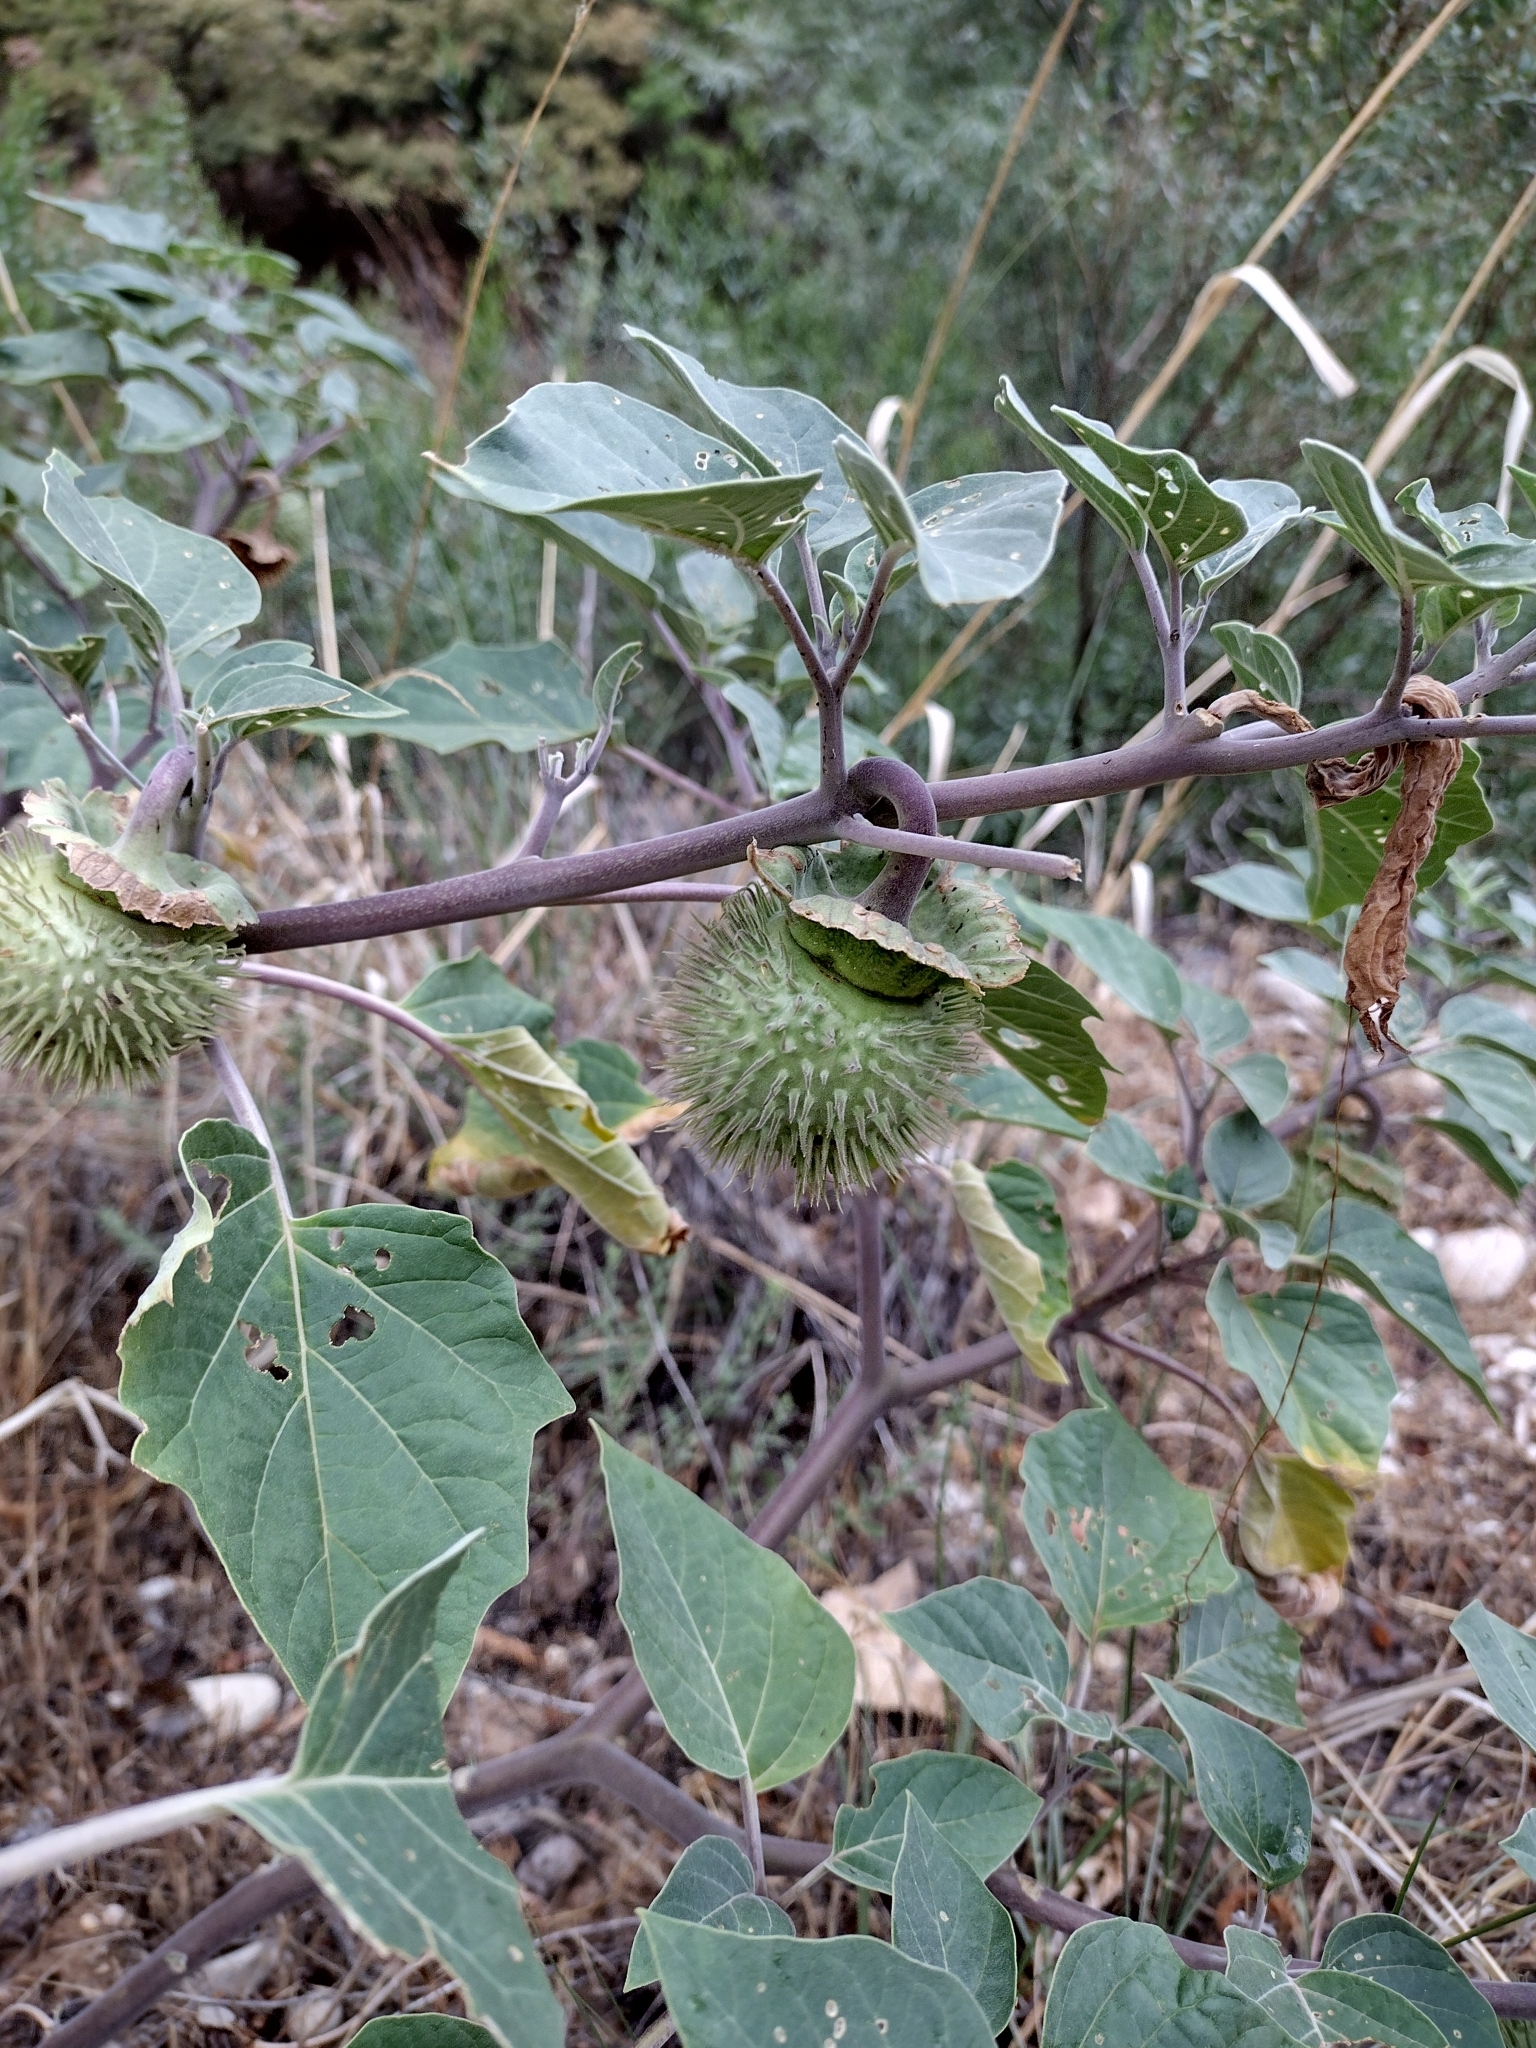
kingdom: Plantae
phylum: Tracheophyta
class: Magnoliopsida
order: Solanales
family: Solanaceae
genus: Datura
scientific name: Datura wrightii
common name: Sacred thorn-apple
